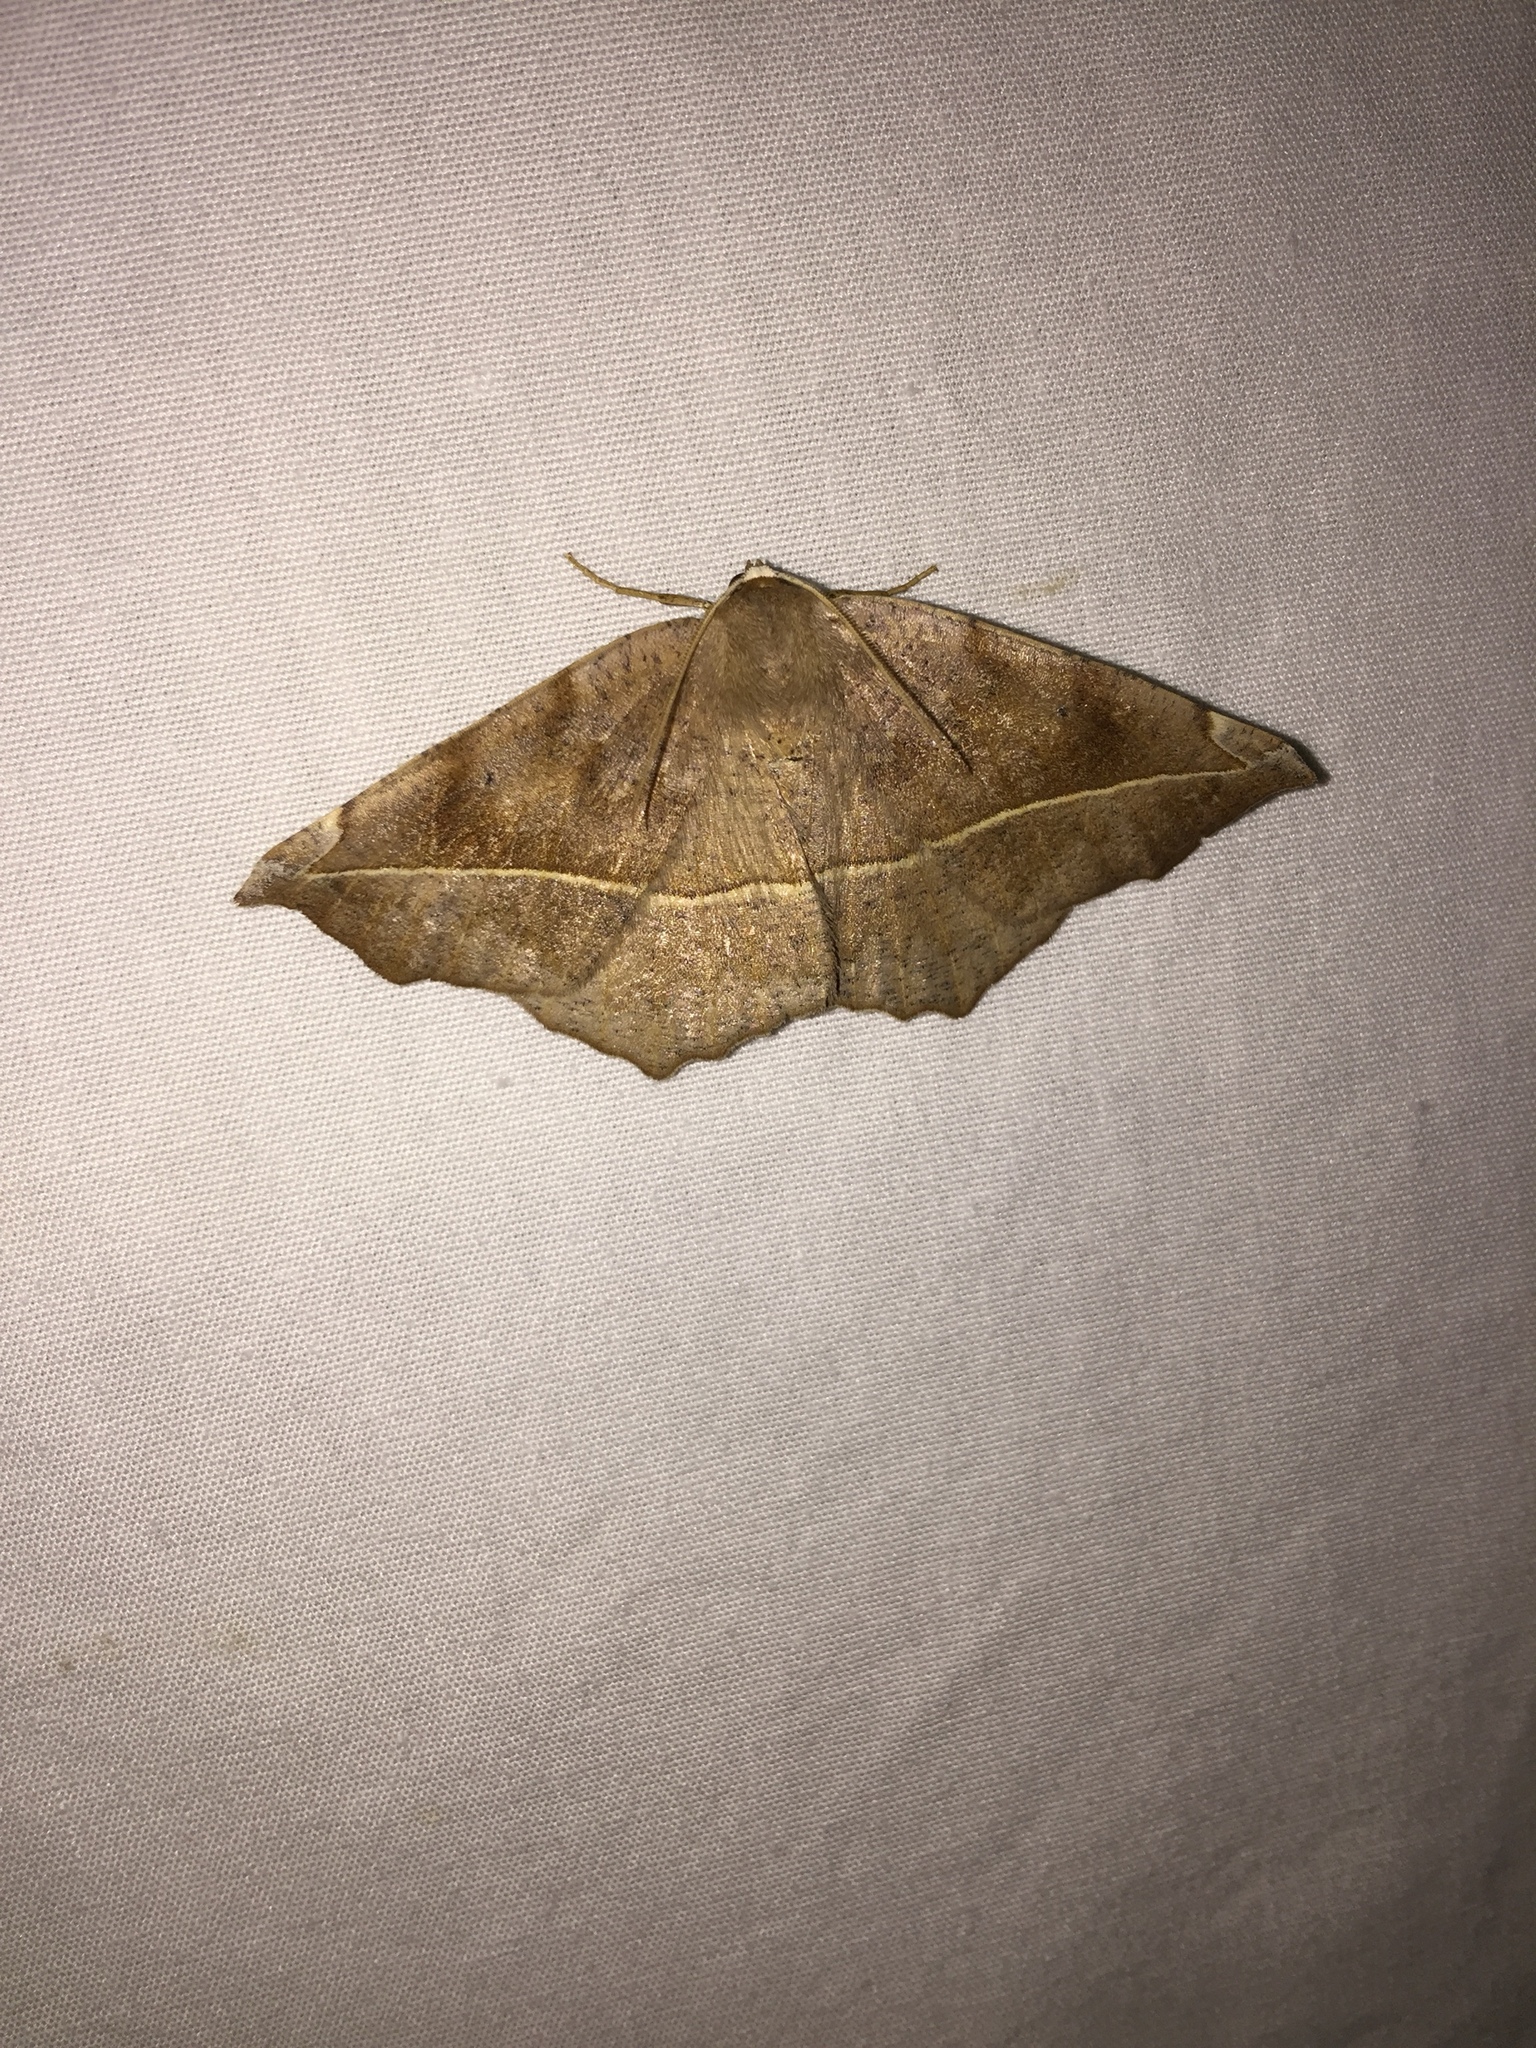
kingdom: Animalia
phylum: Arthropoda
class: Insecta
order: Lepidoptera
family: Geometridae
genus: Eutrapela
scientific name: Eutrapela clemataria
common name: Curved-toothed geometer
